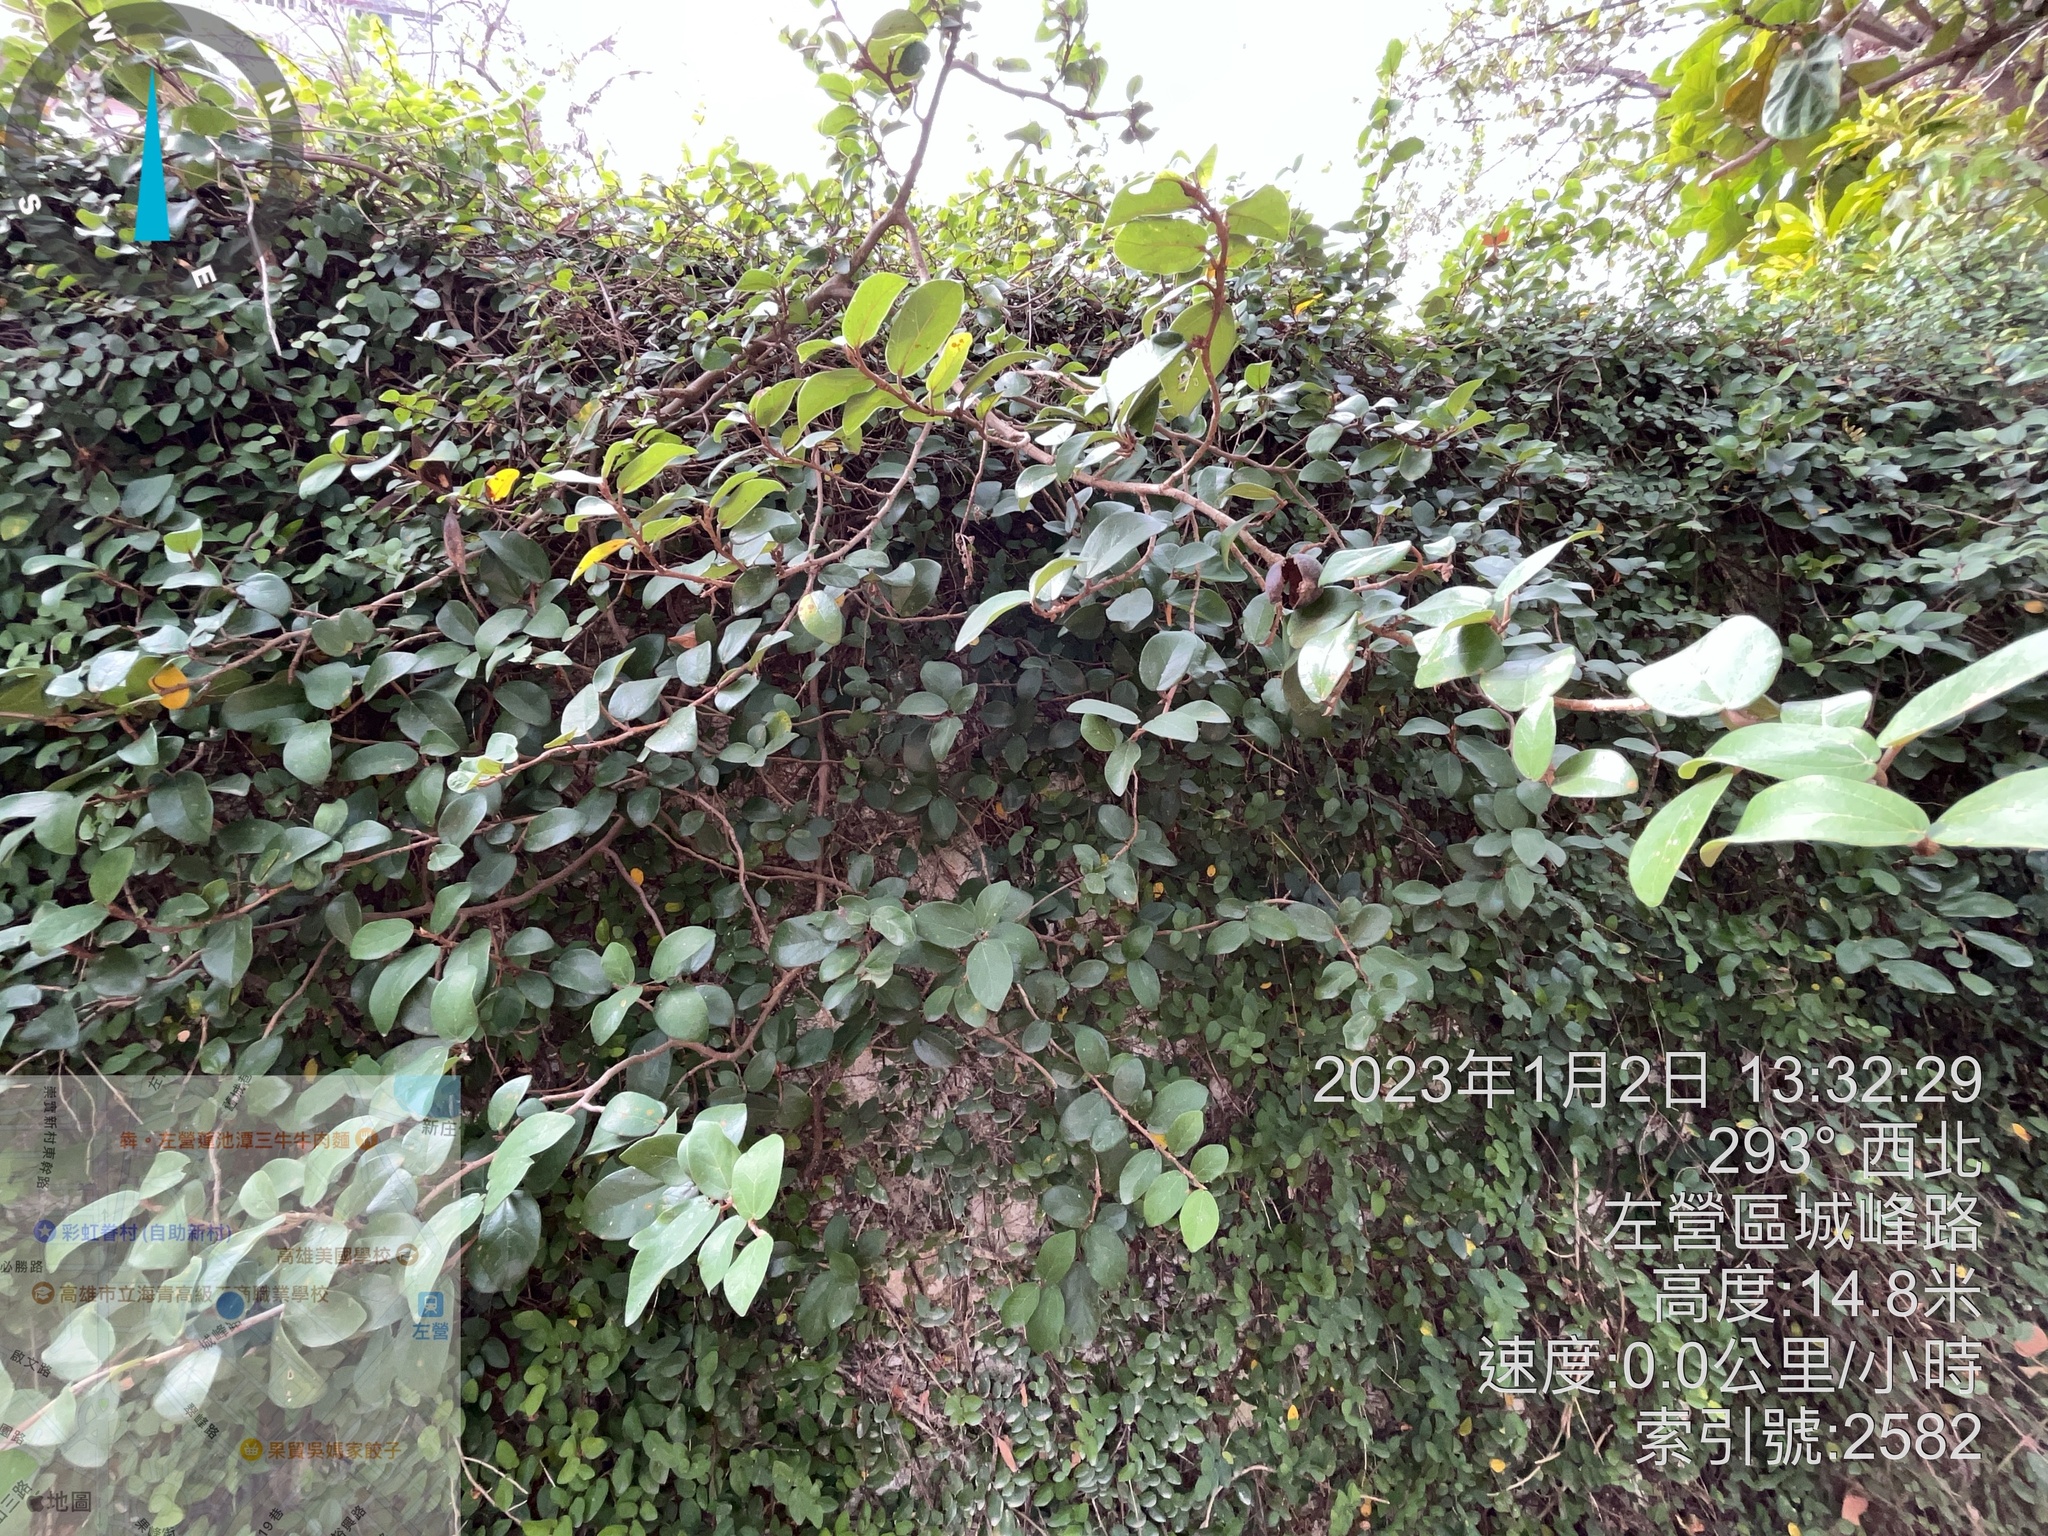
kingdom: Plantae
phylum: Tracheophyta
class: Magnoliopsida
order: Rosales
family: Moraceae
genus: Ficus
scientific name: Ficus pumila
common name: Climbingfig
